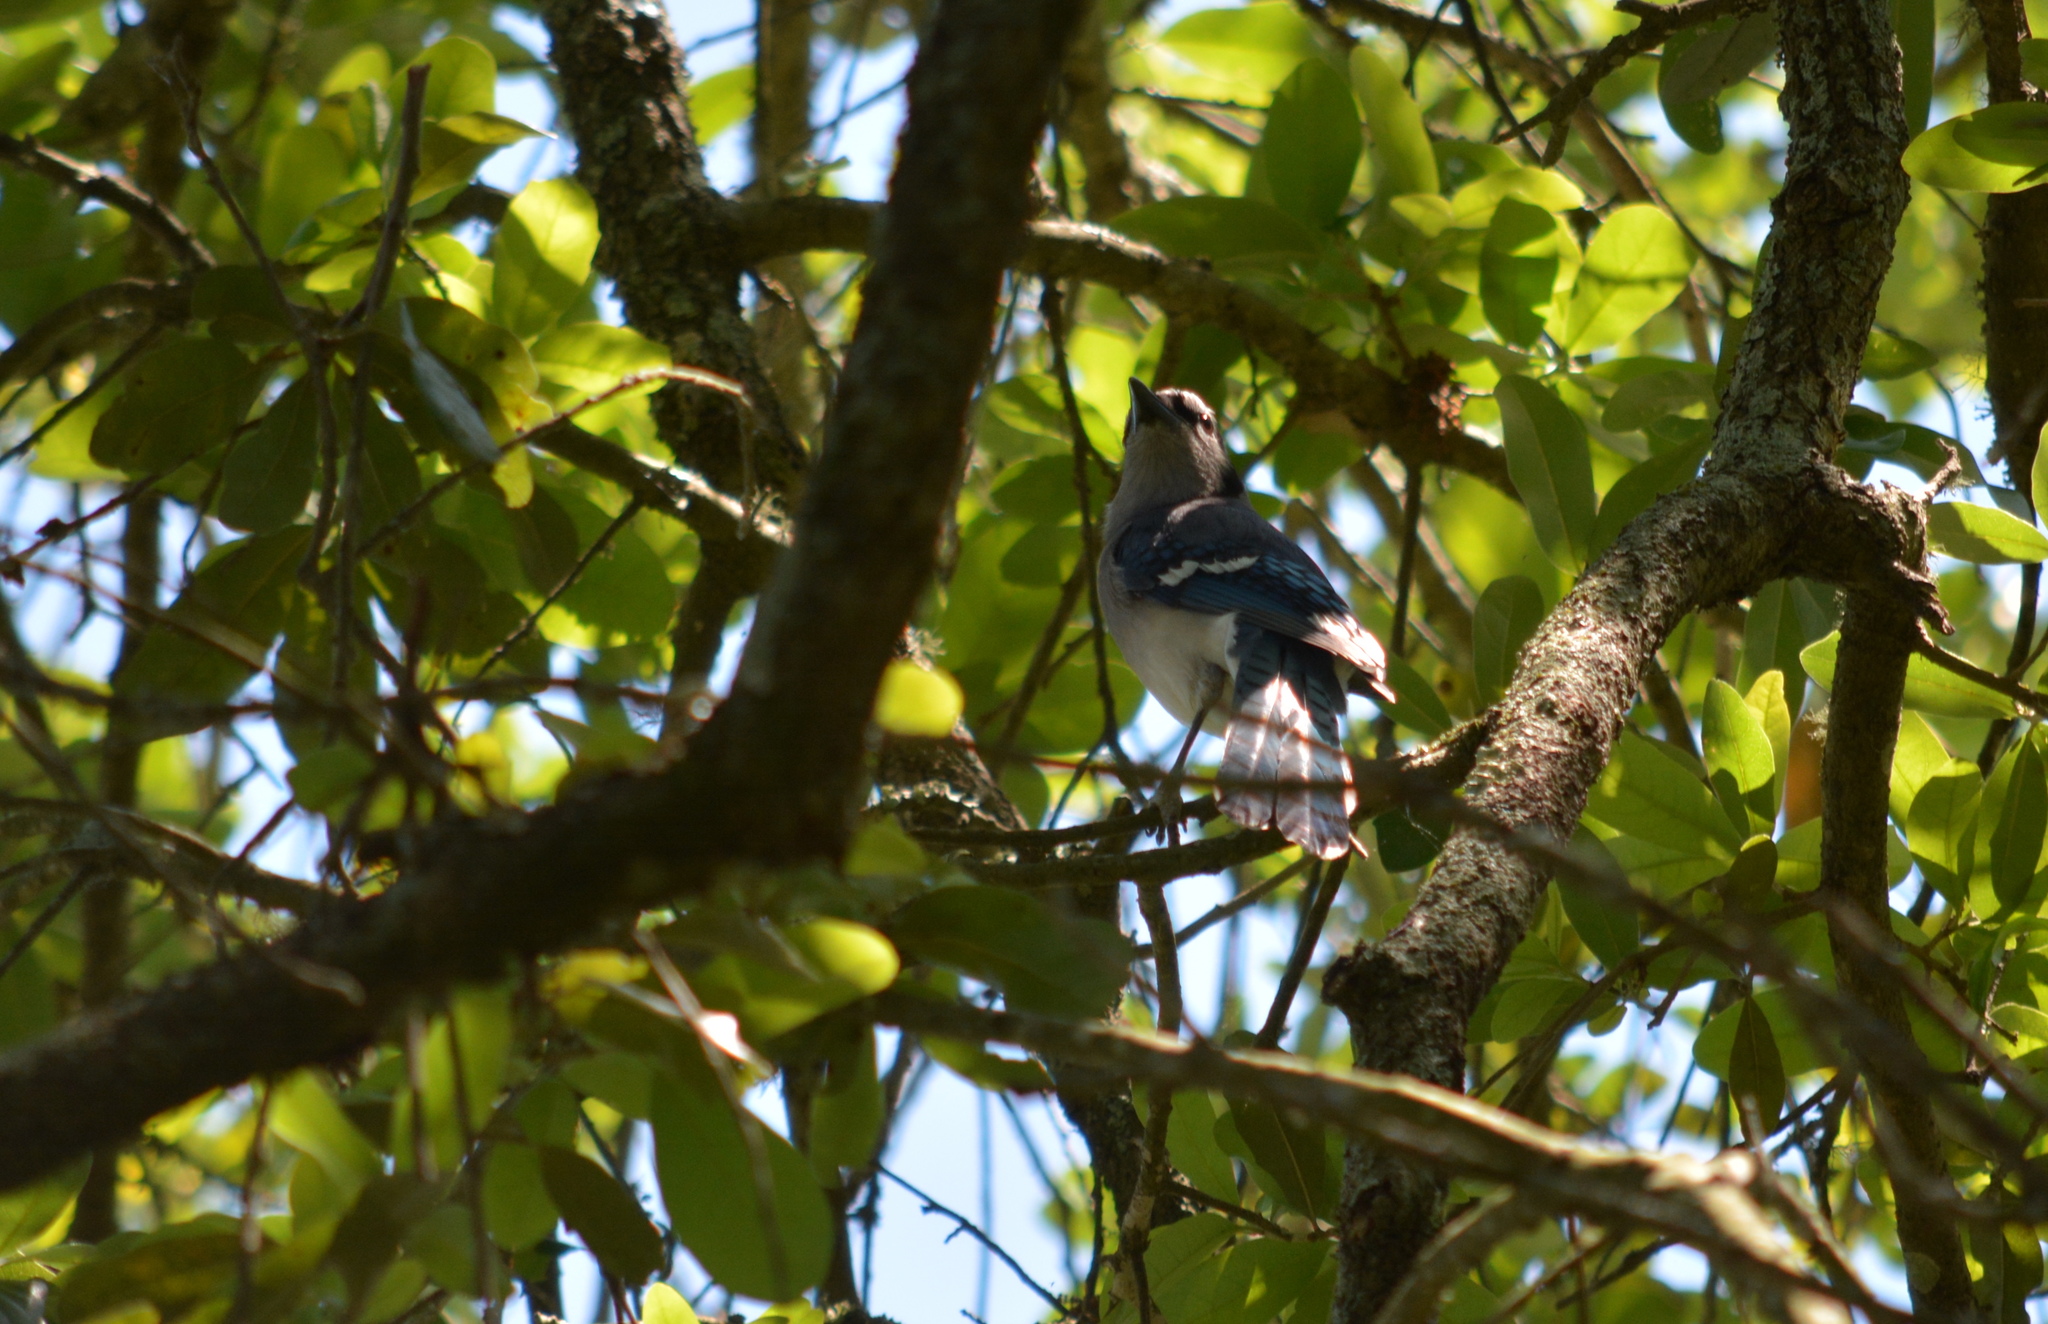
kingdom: Animalia
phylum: Chordata
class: Aves
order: Passeriformes
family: Corvidae
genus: Cyanocitta
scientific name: Cyanocitta cristata
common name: Blue jay
